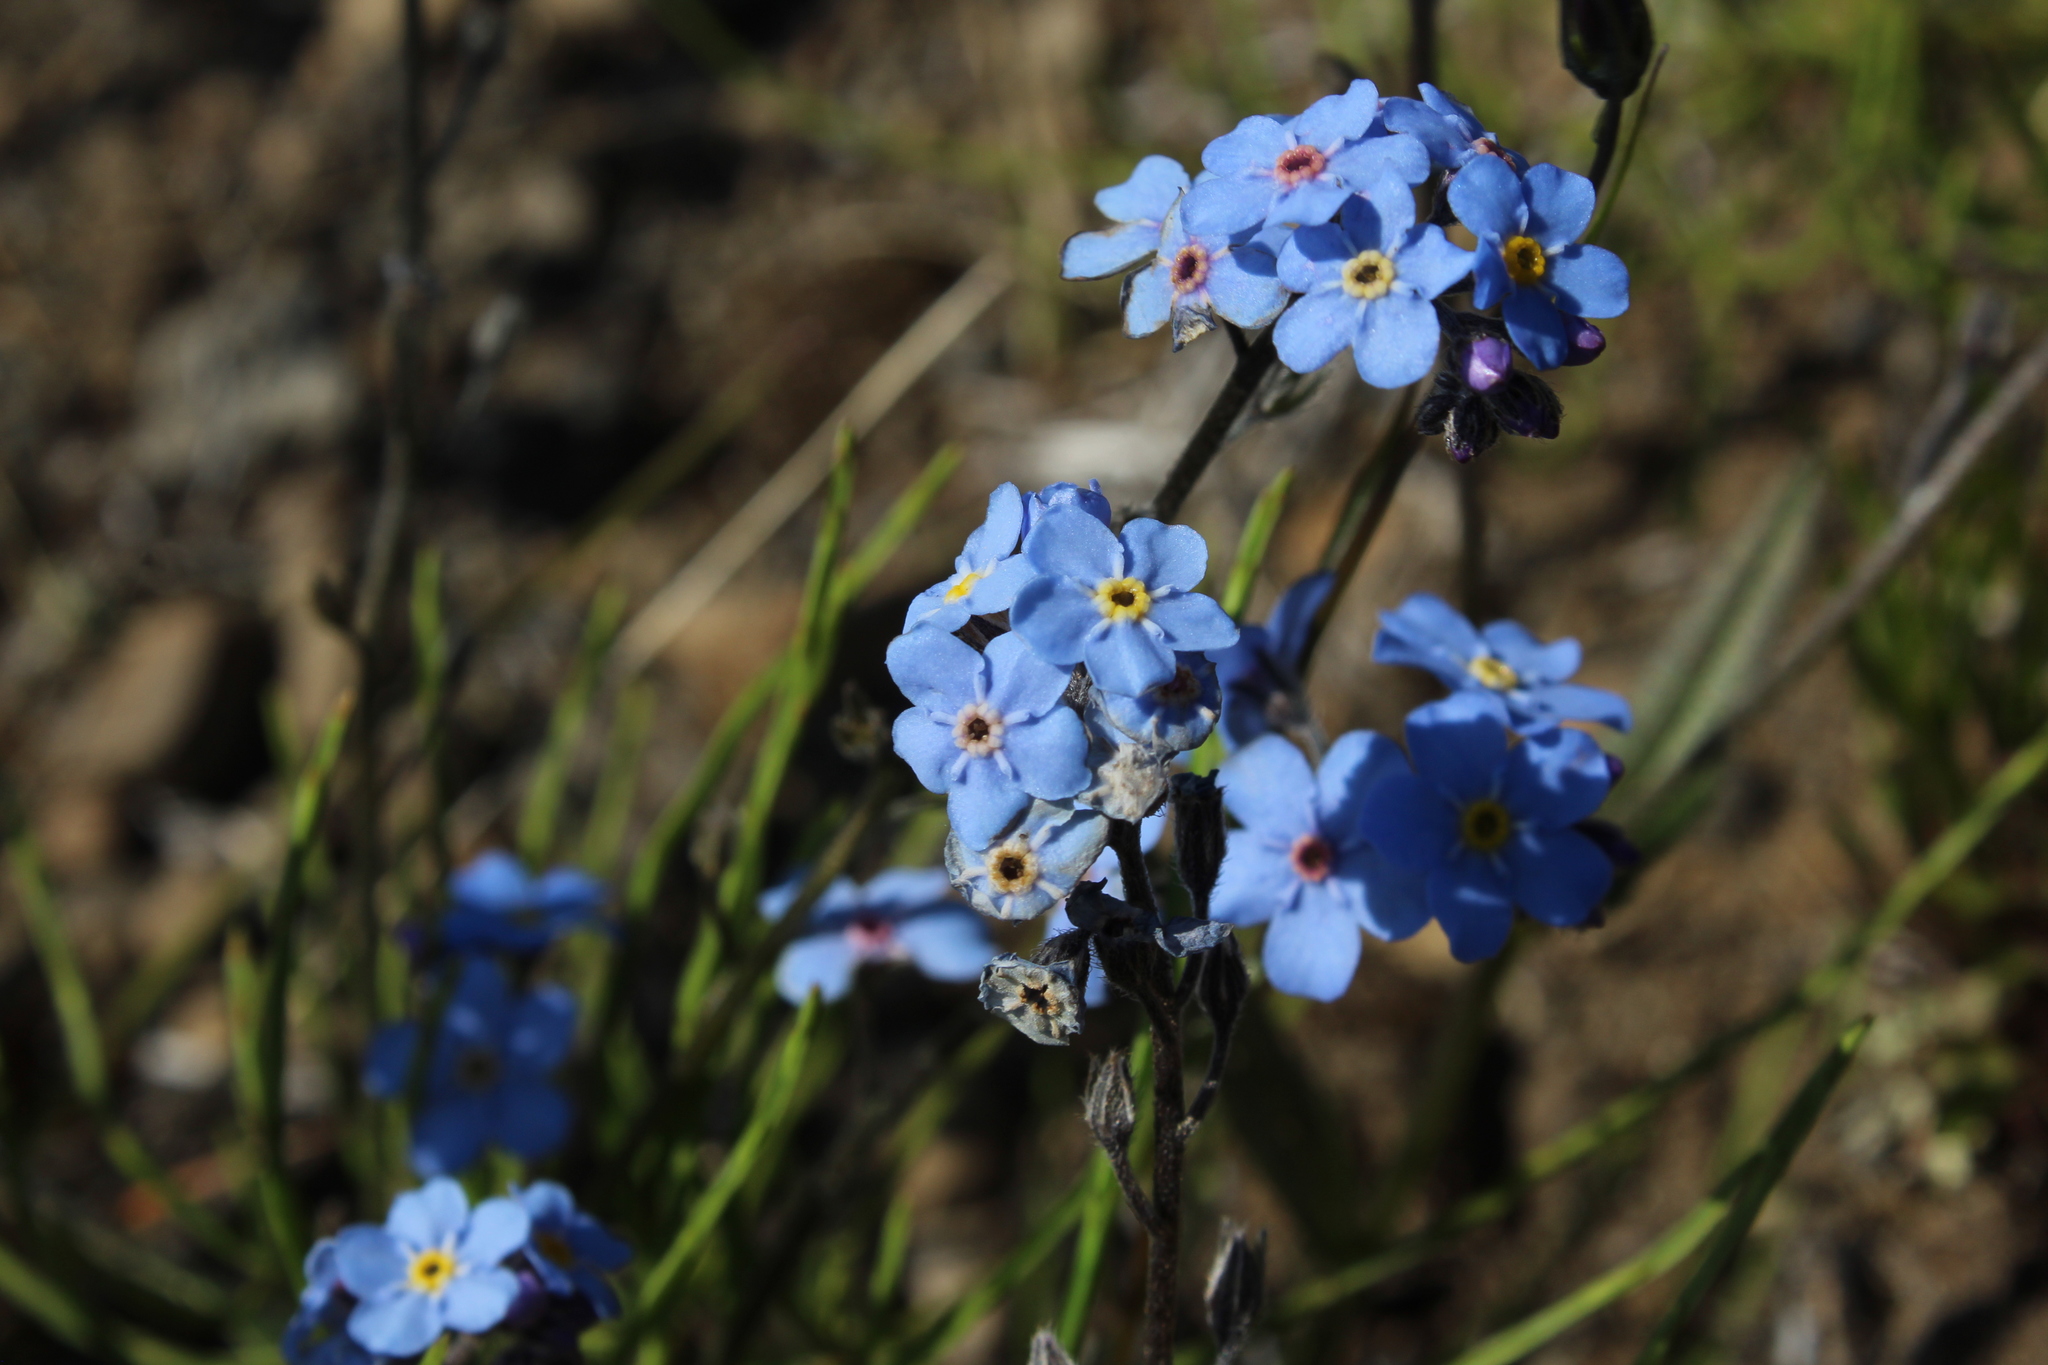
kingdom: Plantae
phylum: Tracheophyta
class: Magnoliopsida
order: Boraginales
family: Boraginaceae
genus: Myosotis
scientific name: Myosotis asiatica
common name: Asian forget-me-not
